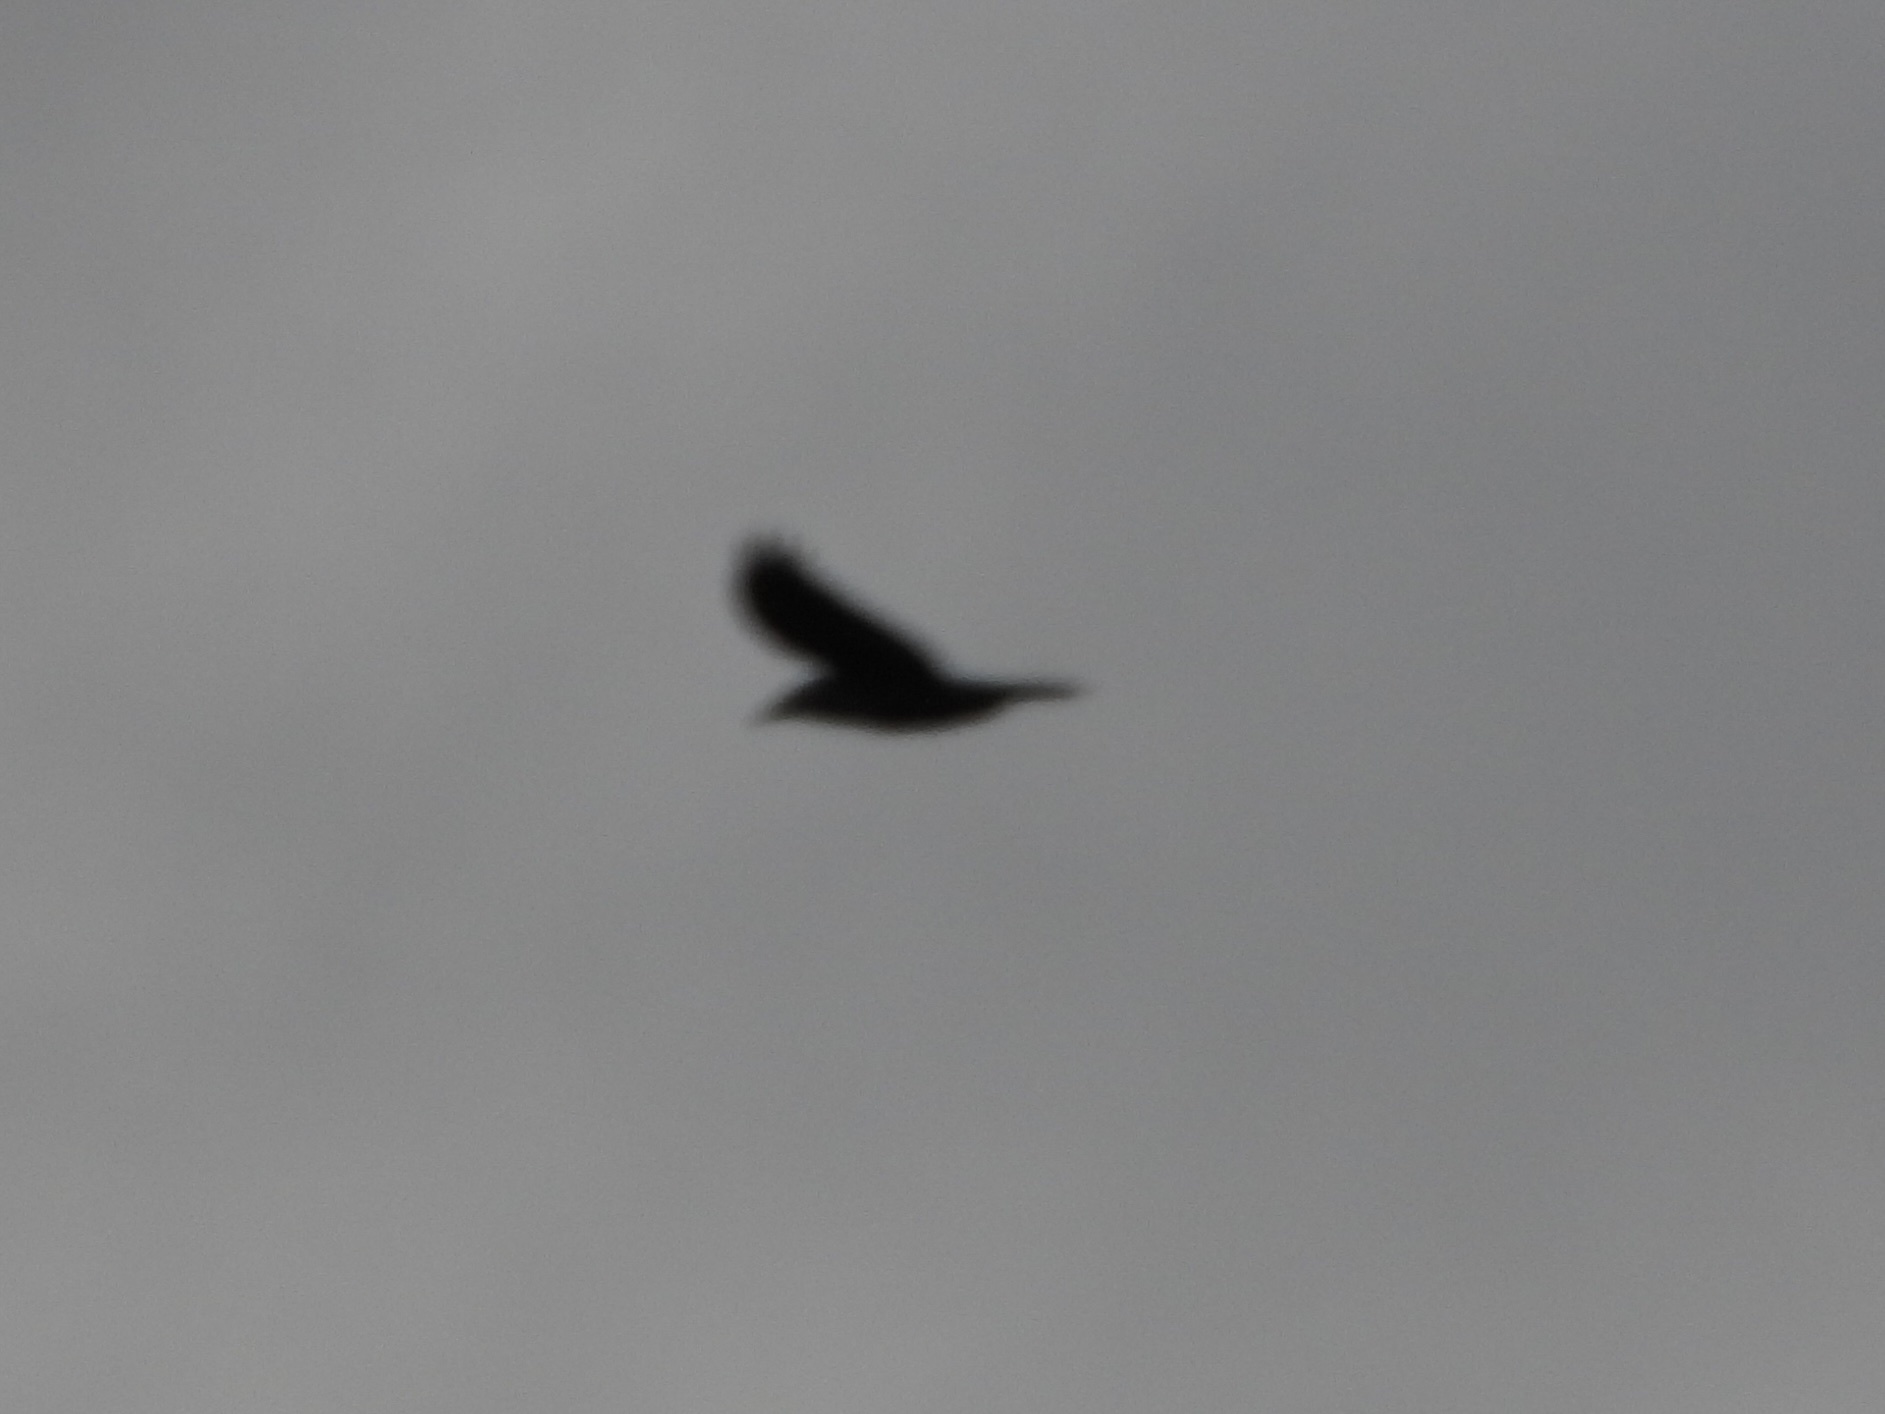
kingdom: Animalia
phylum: Chordata
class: Aves
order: Passeriformes
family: Corvidae
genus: Corvus
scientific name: Corvus corax
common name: Common raven
